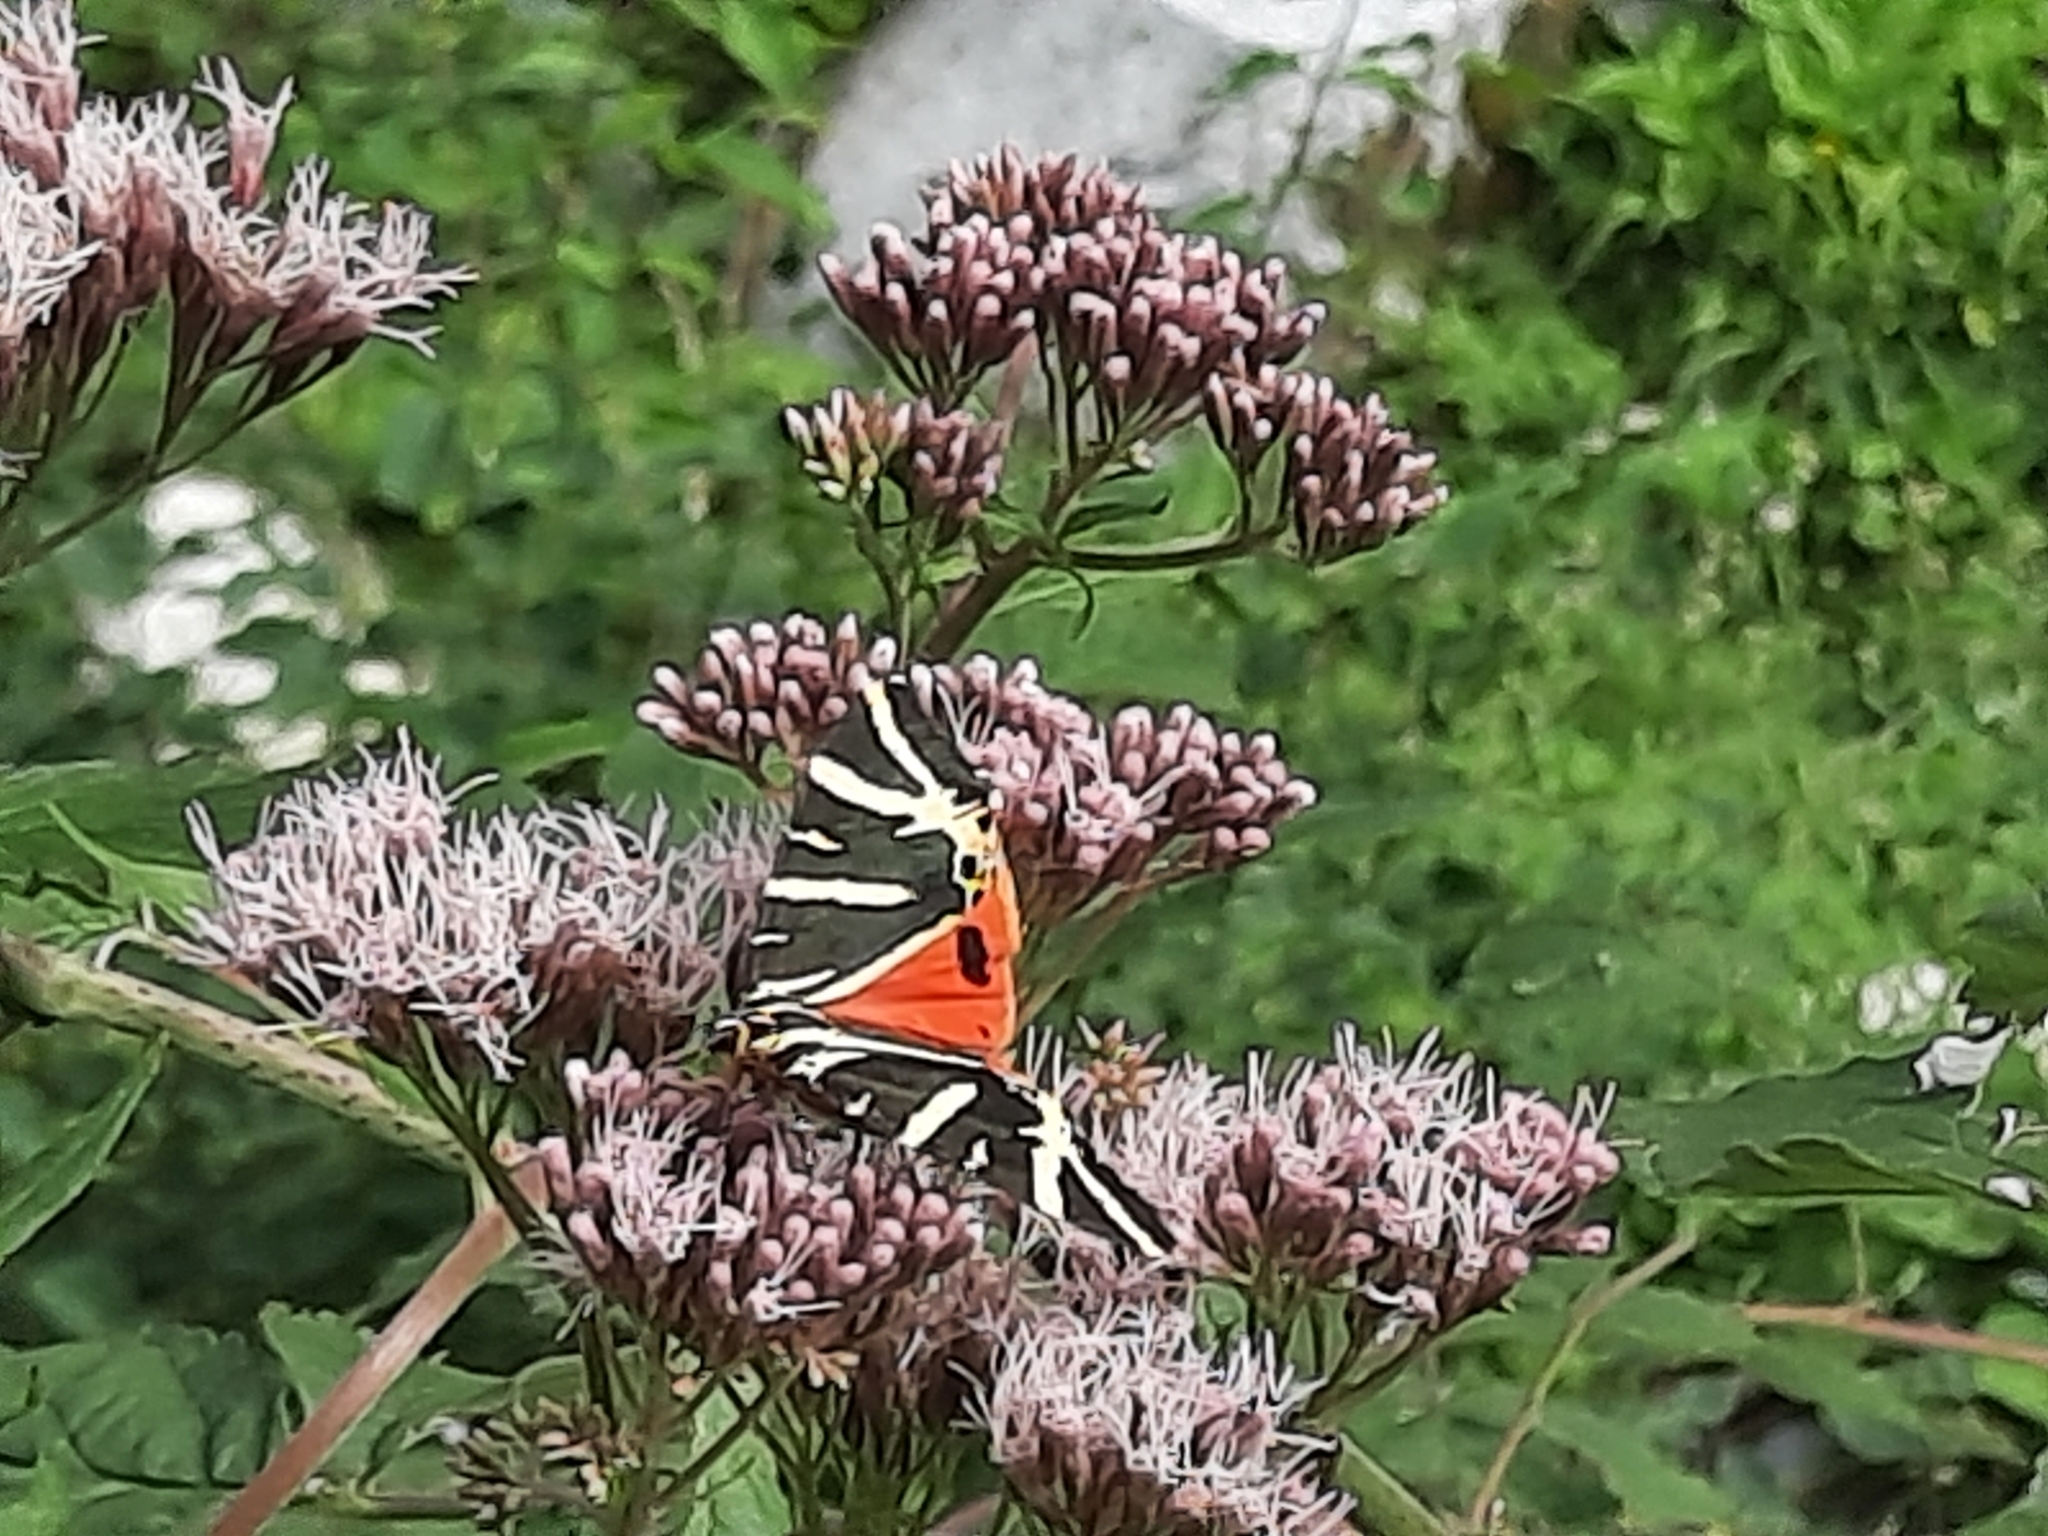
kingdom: Animalia
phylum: Arthropoda
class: Insecta
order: Lepidoptera
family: Erebidae
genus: Euplagia
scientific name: Euplagia quadripunctaria
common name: Jersey tiger
